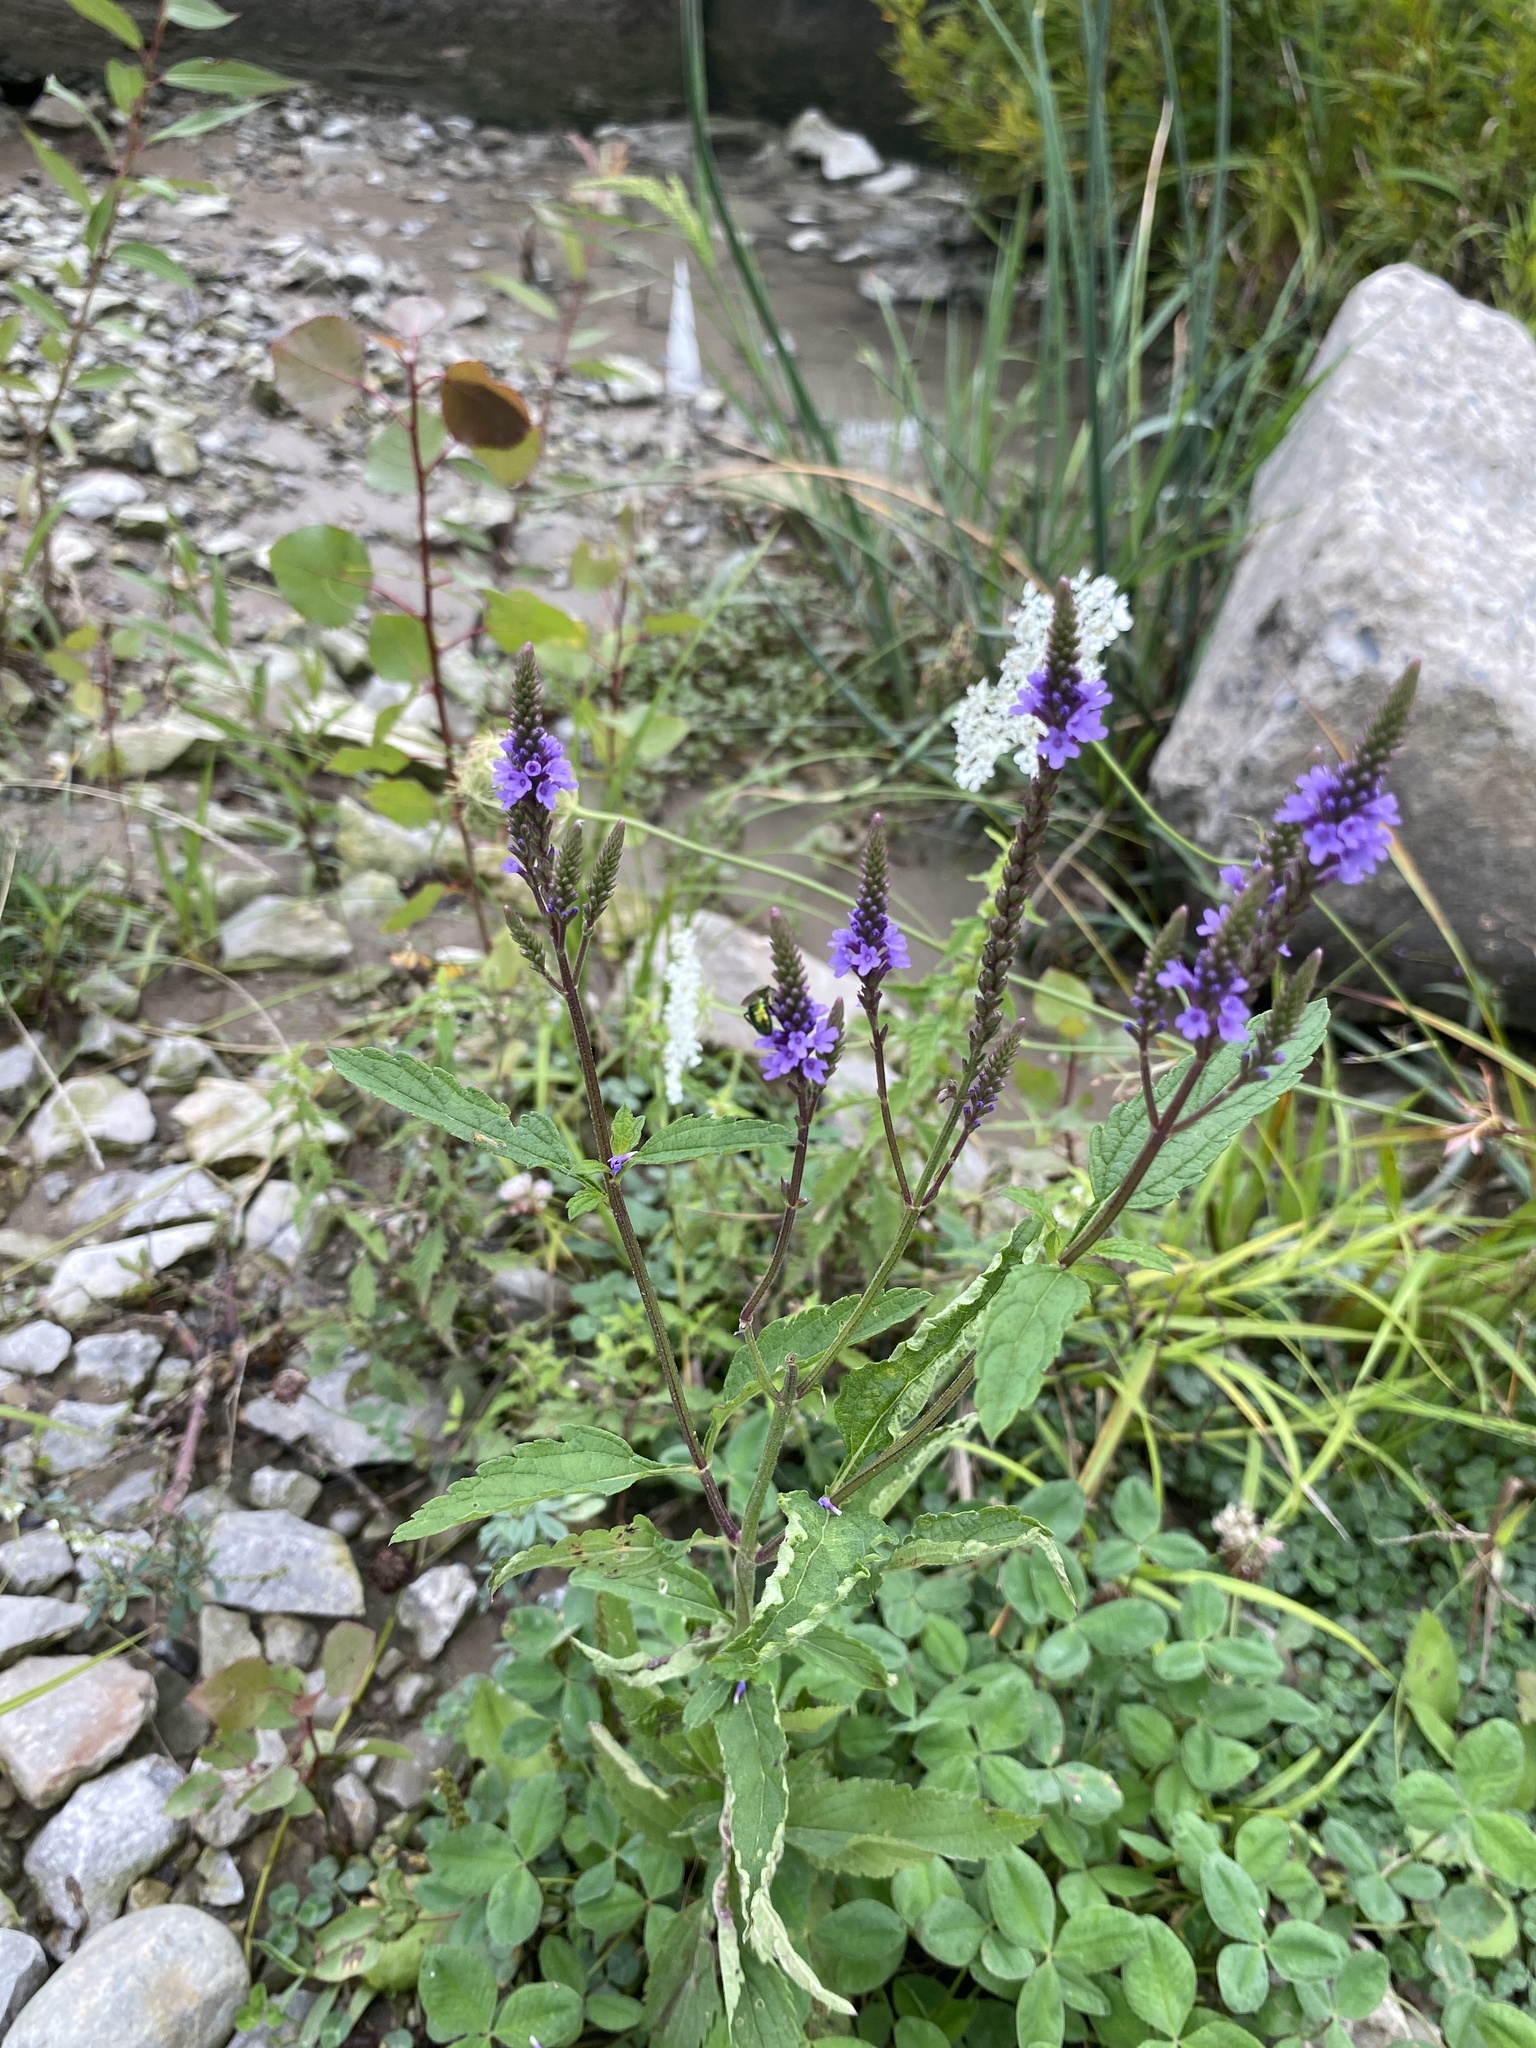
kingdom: Plantae
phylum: Tracheophyta
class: Magnoliopsida
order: Lamiales
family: Verbenaceae
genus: Verbena
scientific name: Verbena hastata
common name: American blue vervain
